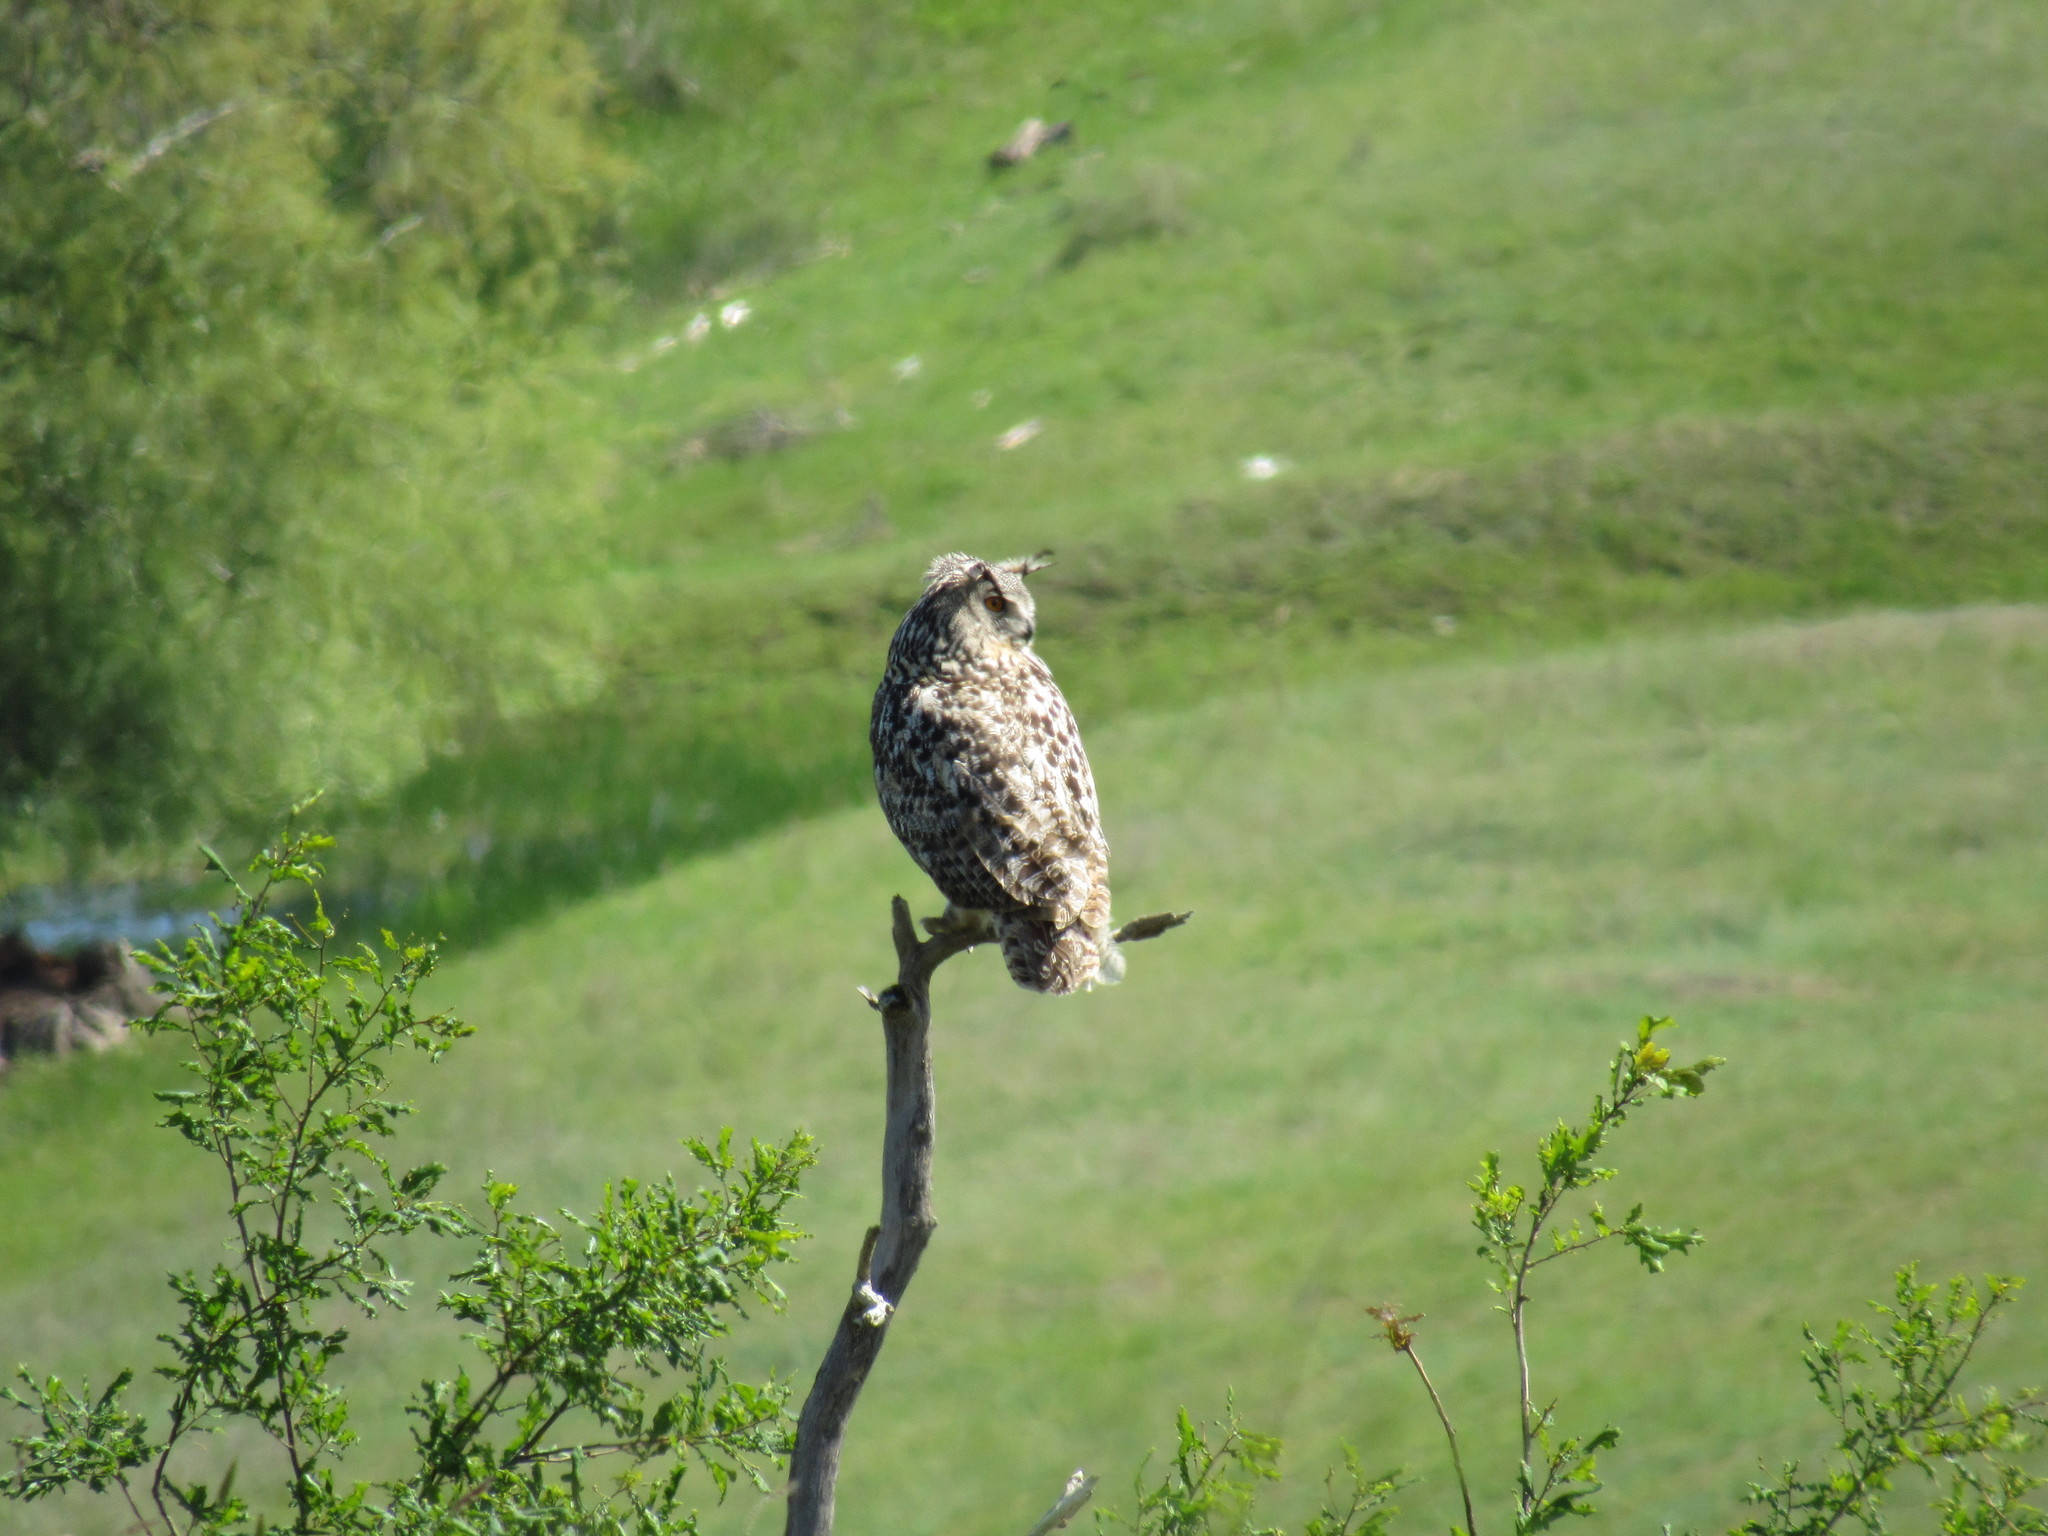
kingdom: Animalia
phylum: Chordata
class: Aves
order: Strigiformes
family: Strigidae
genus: Bubo
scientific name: Bubo bubo
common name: Eurasian eagle-owl
